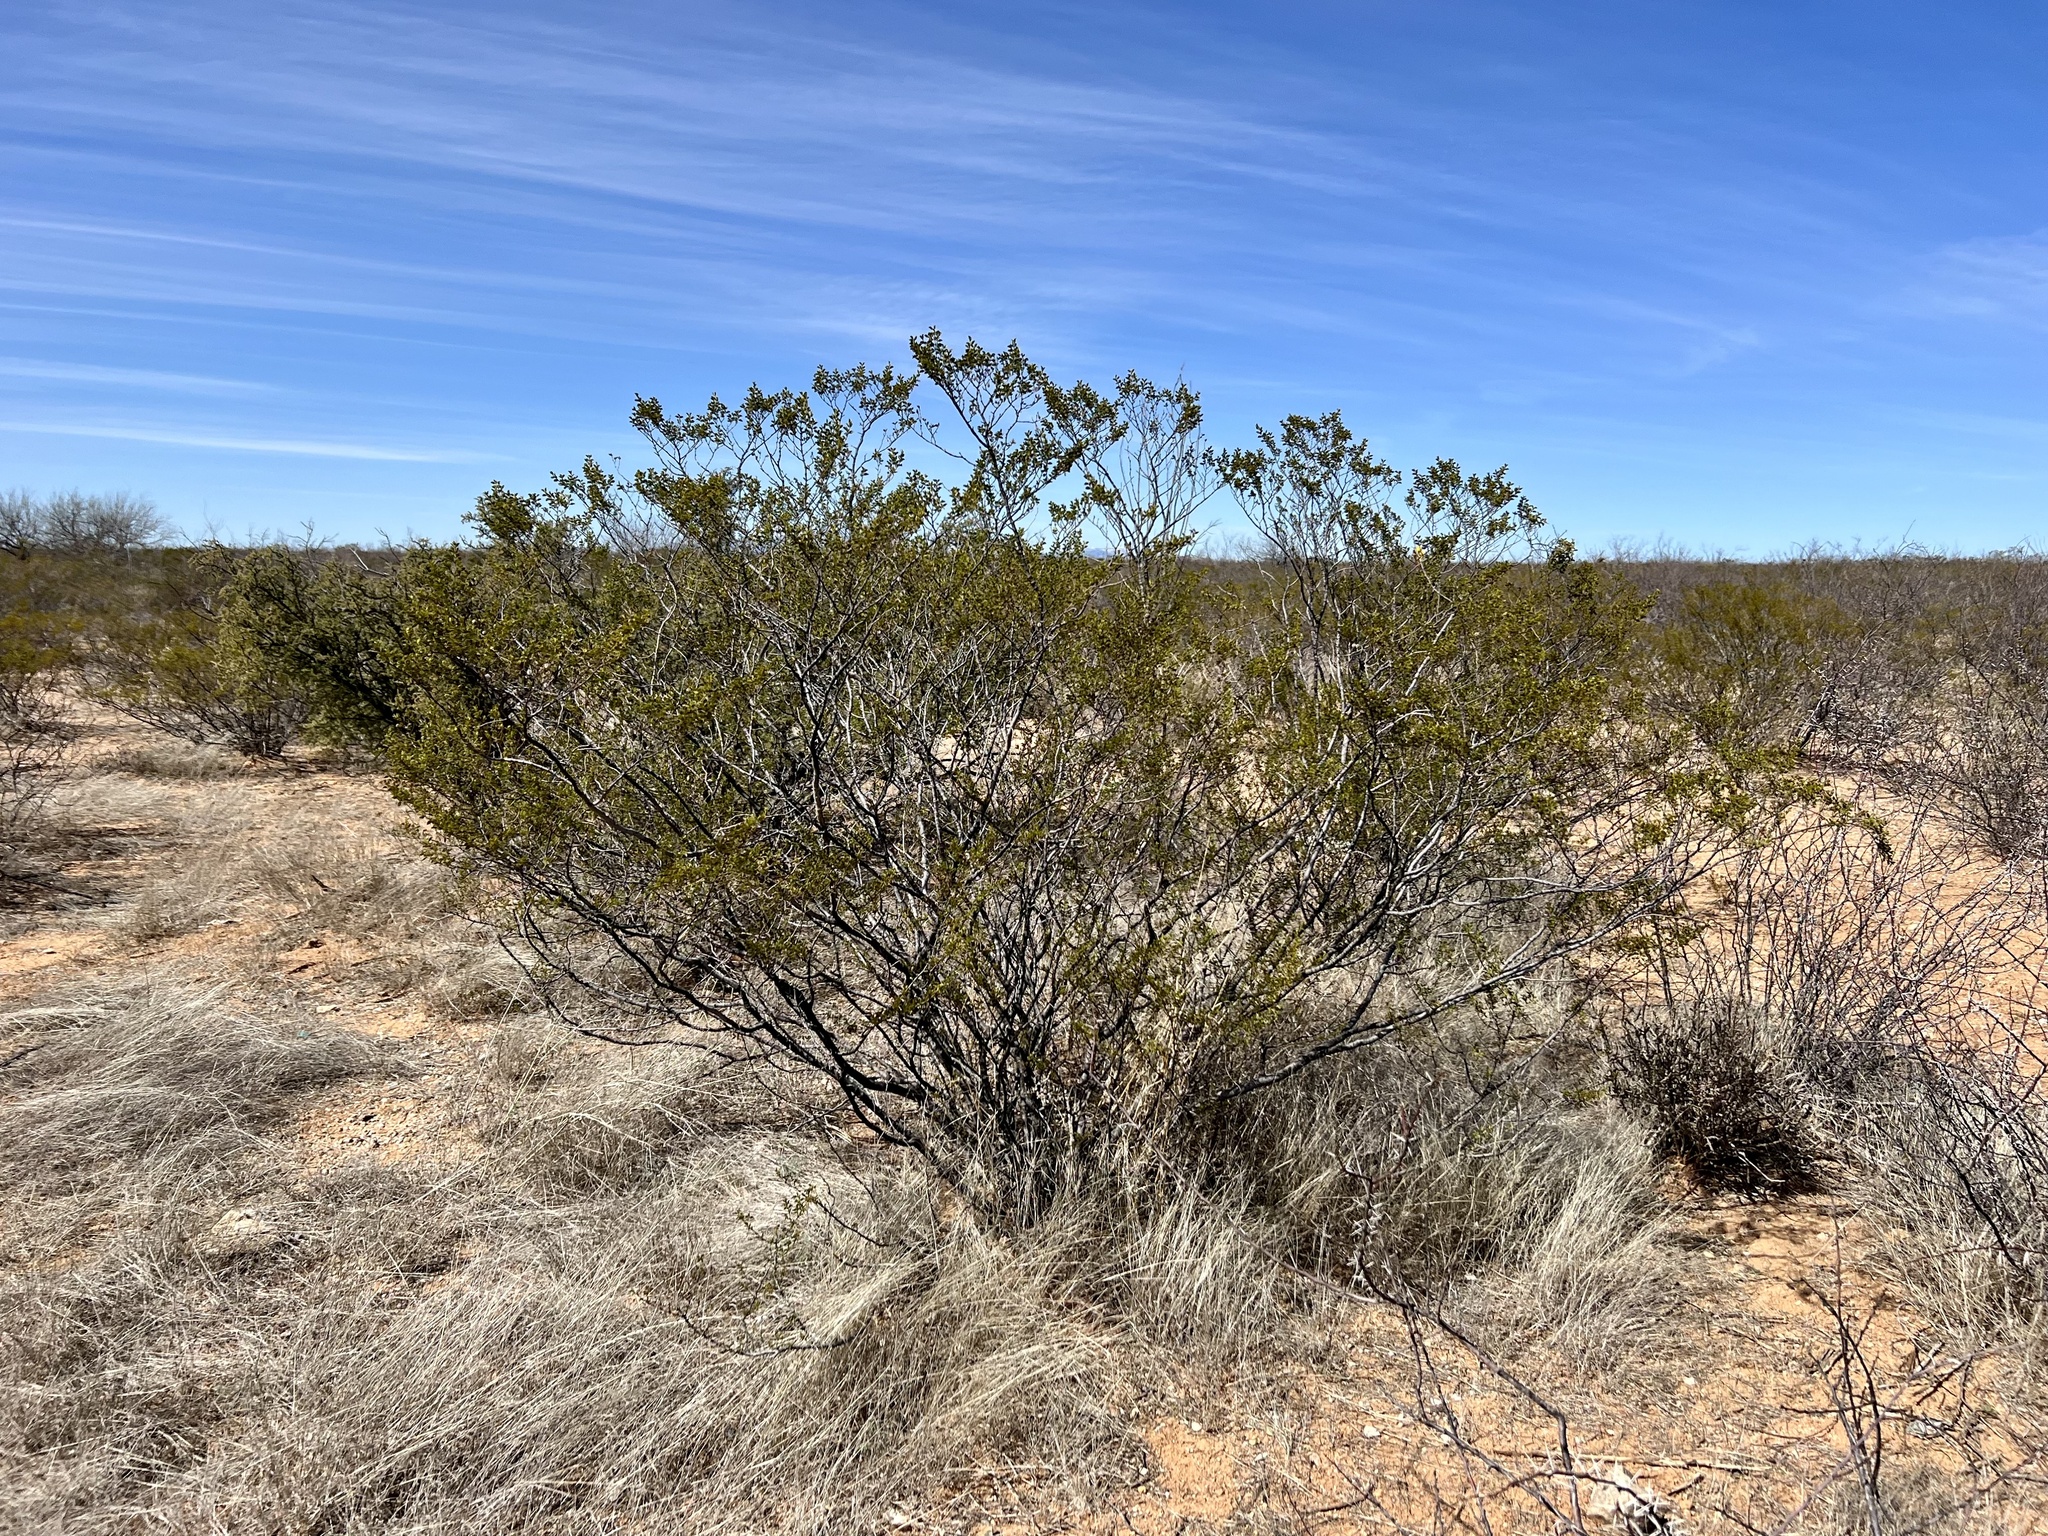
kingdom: Plantae
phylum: Tracheophyta
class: Magnoliopsida
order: Zygophyllales
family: Zygophyllaceae
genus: Larrea
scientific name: Larrea tridentata
